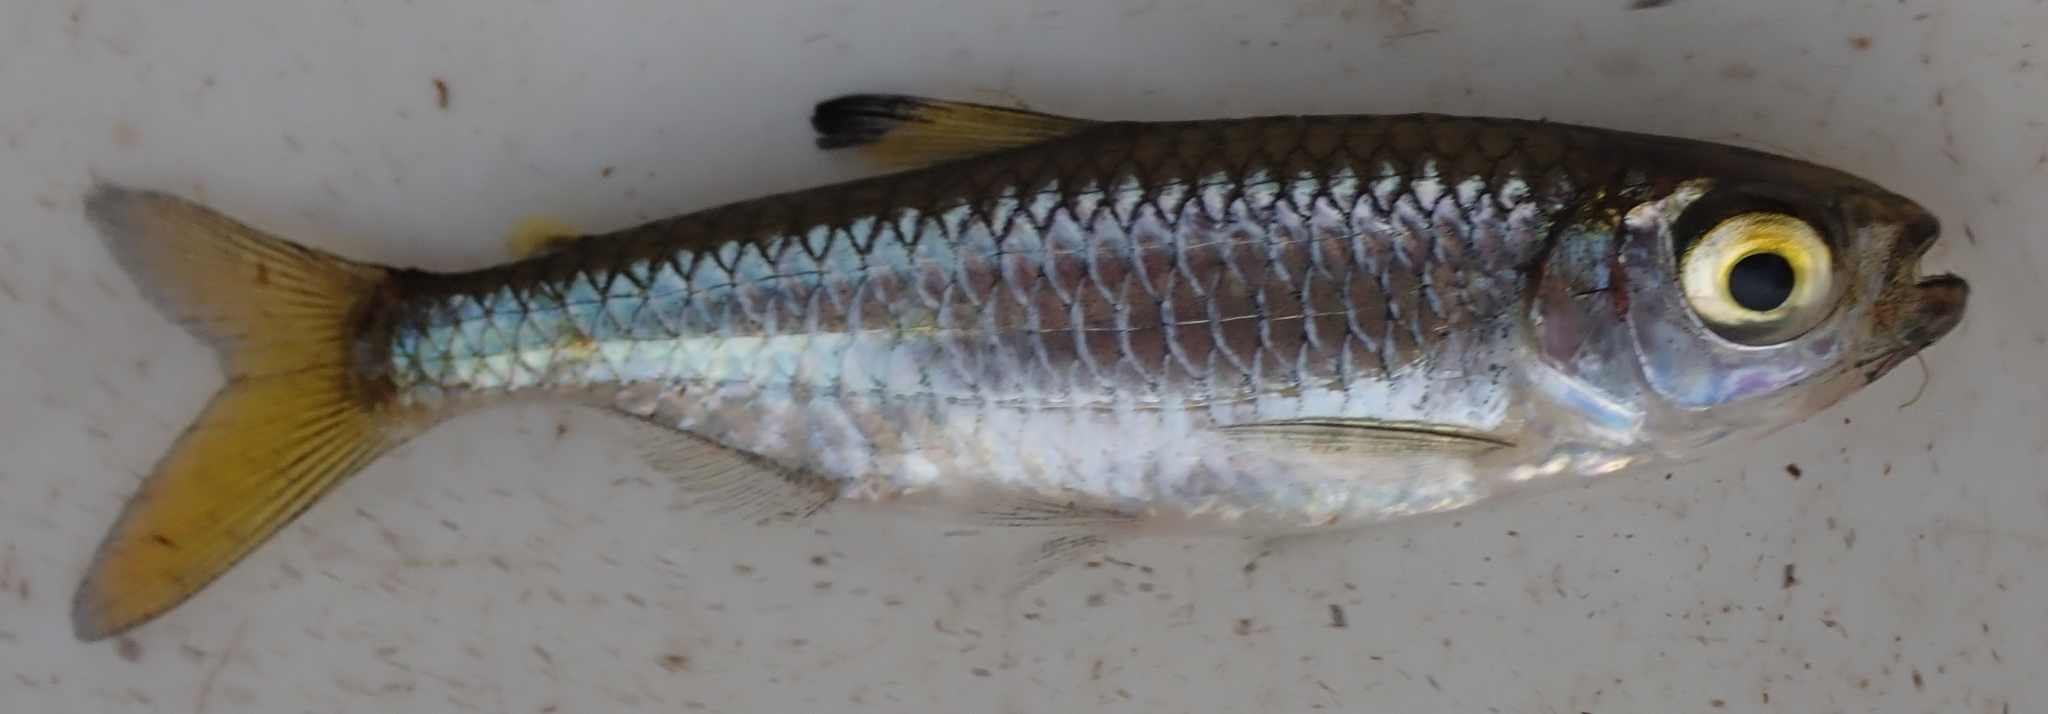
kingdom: Animalia
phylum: Chordata
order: Characiformes
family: Alestidae
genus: Micralestes
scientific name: Micralestes acutidens
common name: Silver robber
